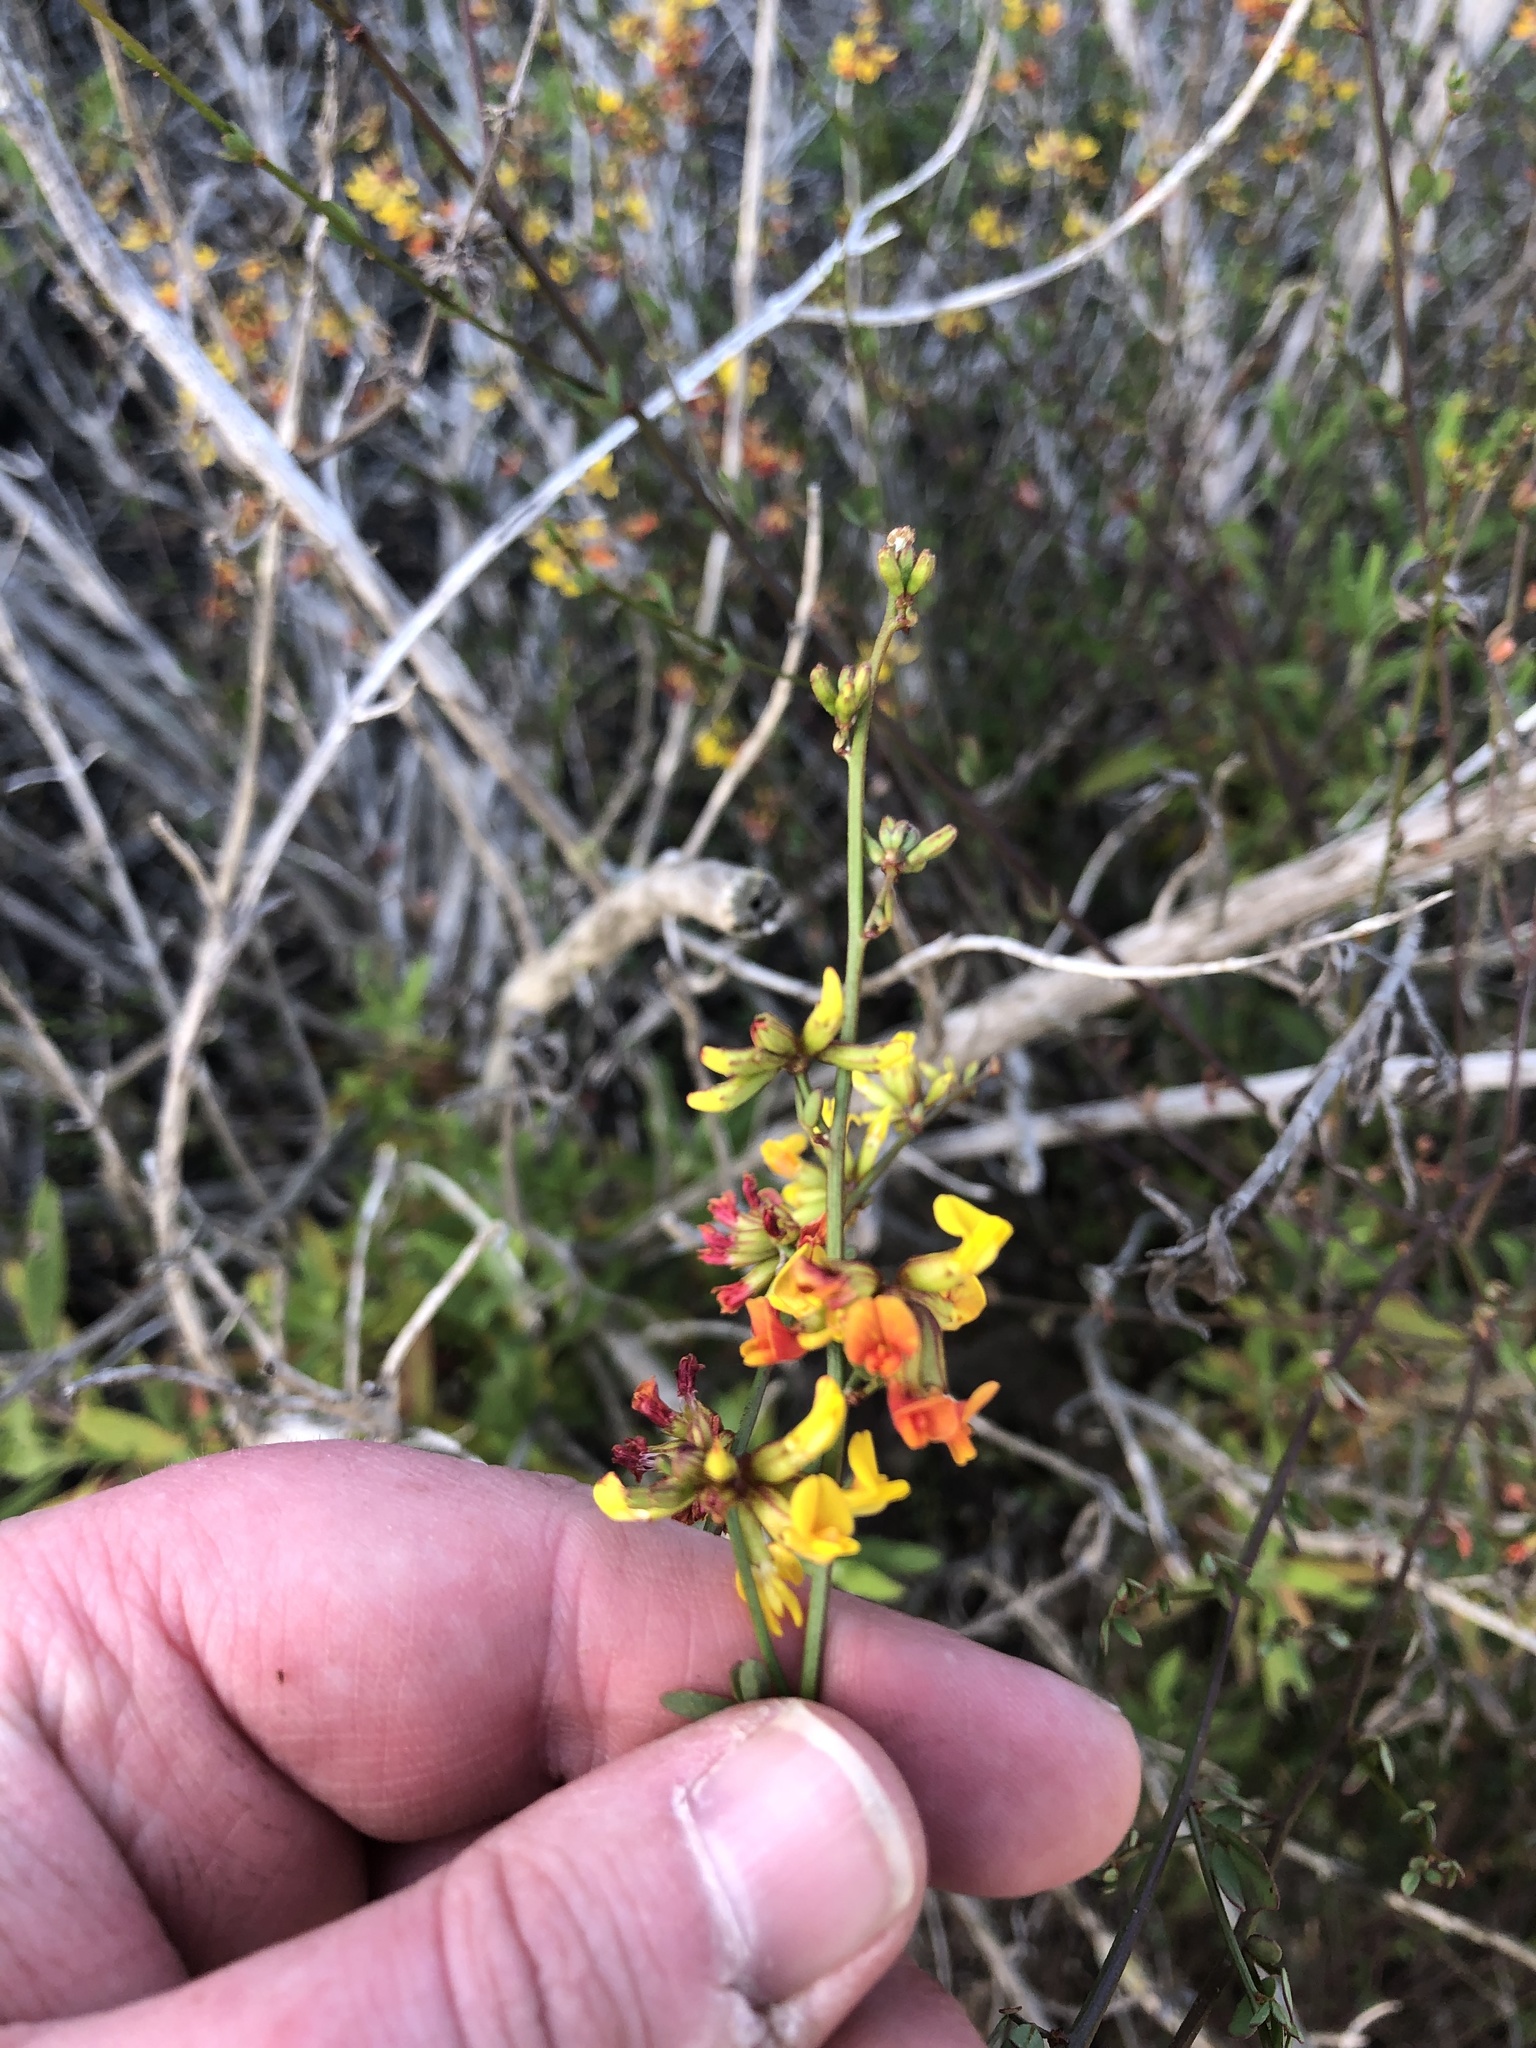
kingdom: Plantae
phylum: Tracheophyta
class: Magnoliopsida
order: Fabales
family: Fabaceae
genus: Acmispon
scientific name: Acmispon junceus
